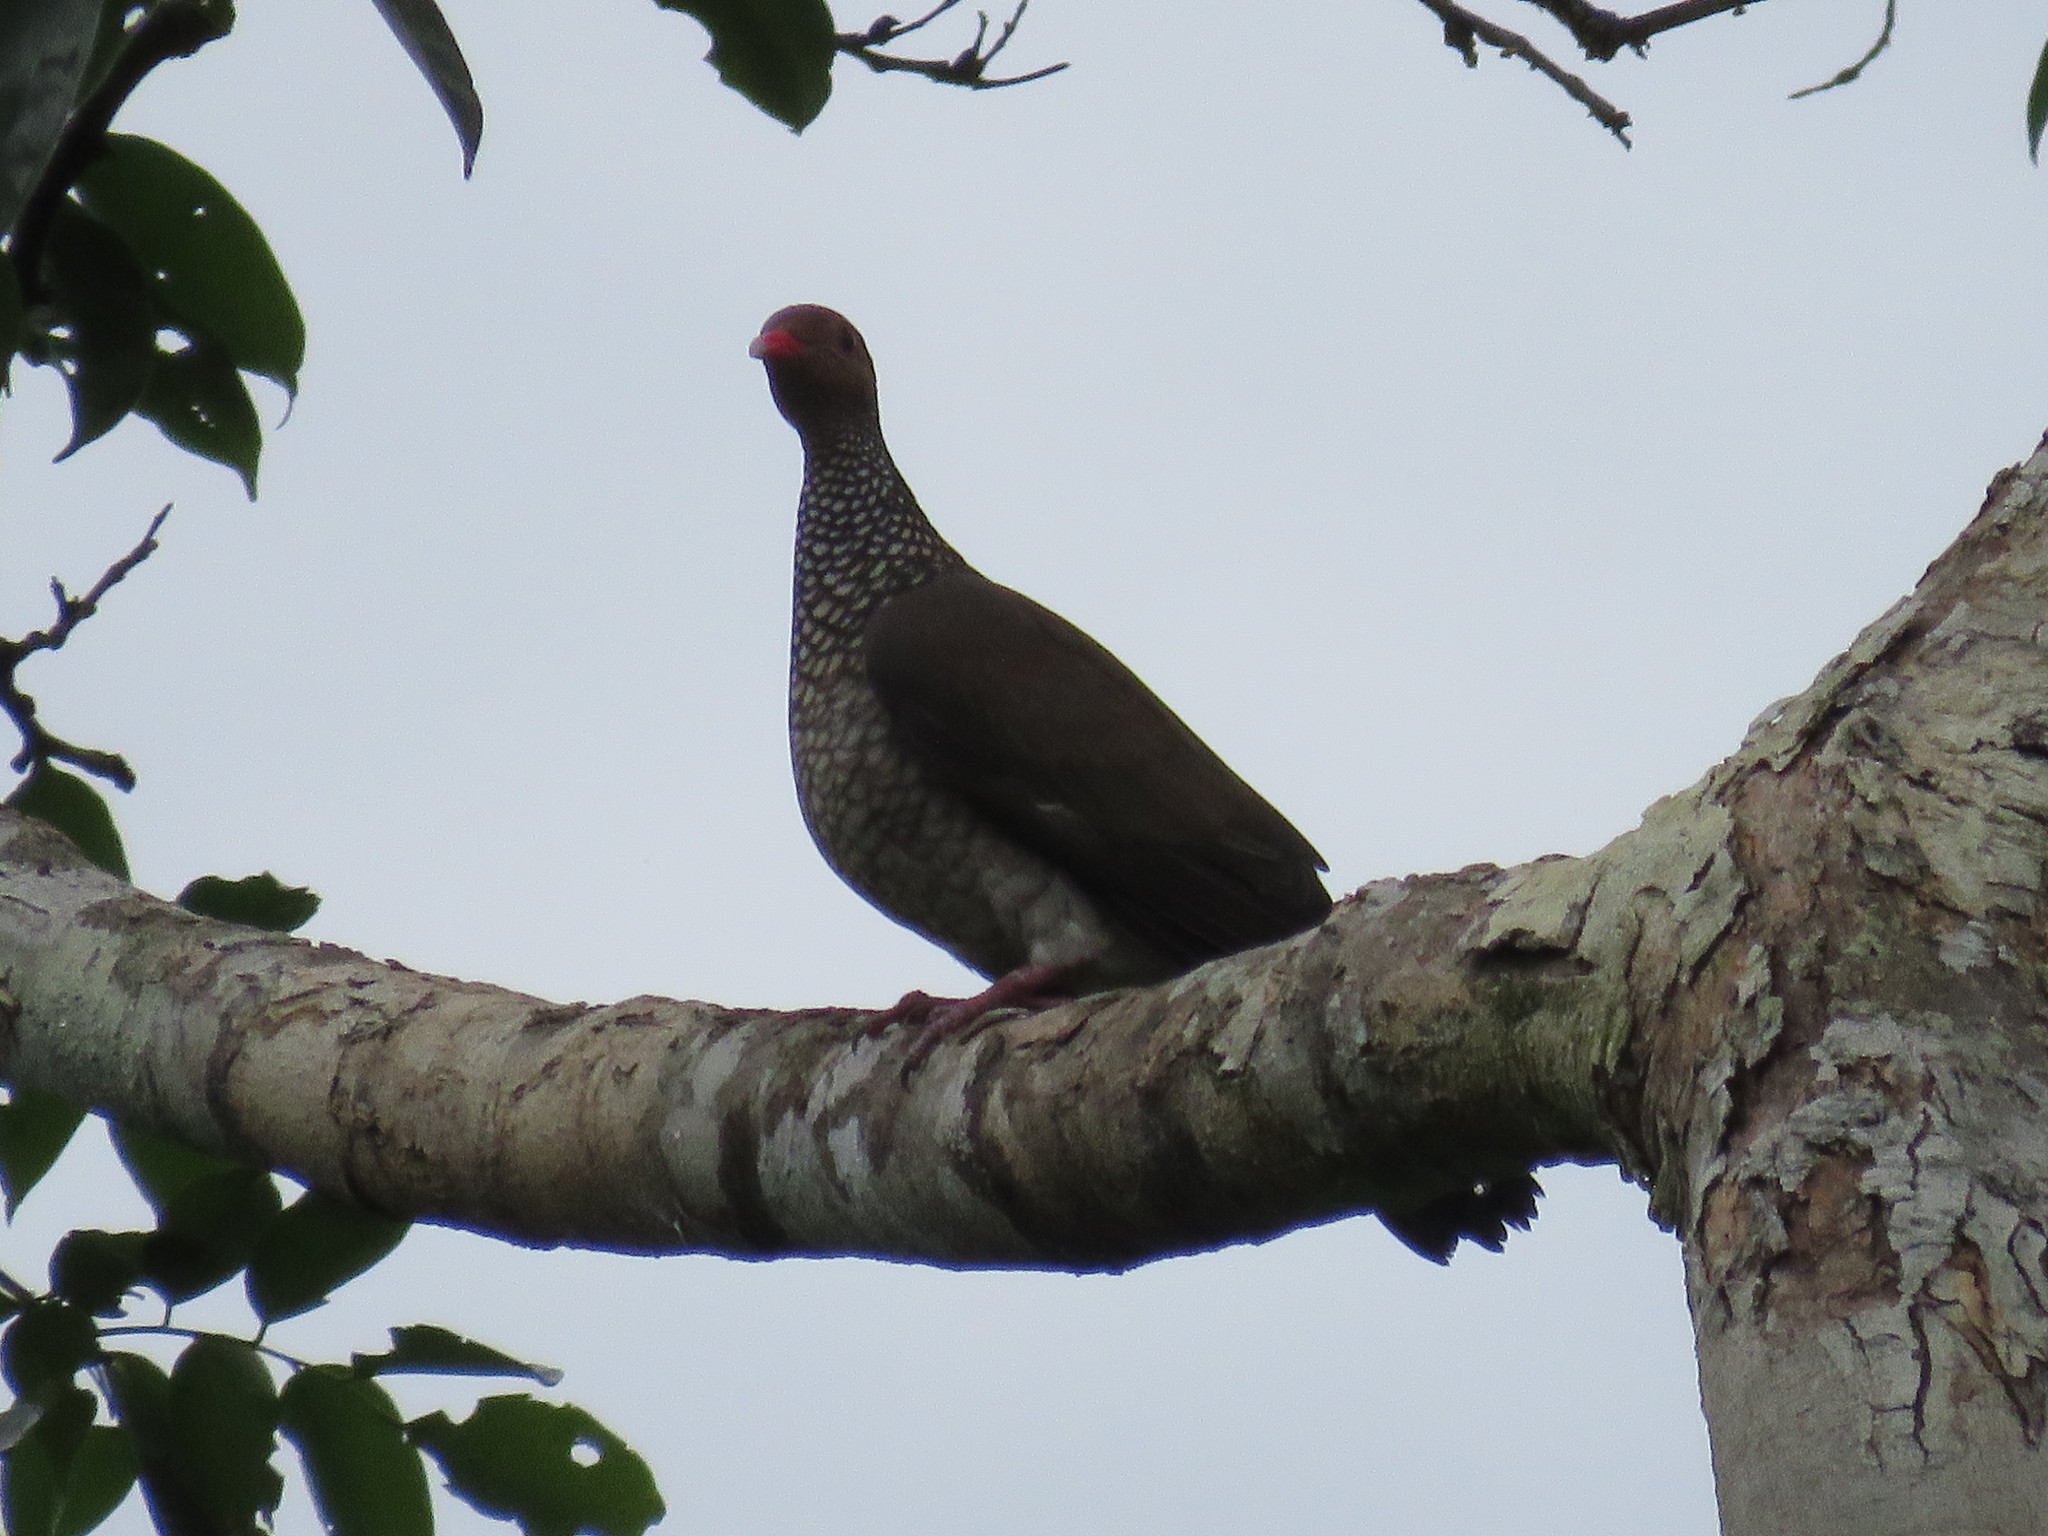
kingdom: Animalia
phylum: Chordata
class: Aves
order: Columbiformes
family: Columbidae
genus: Patagioenas
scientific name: Patagioenas speciosa
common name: Scaled pigeon
